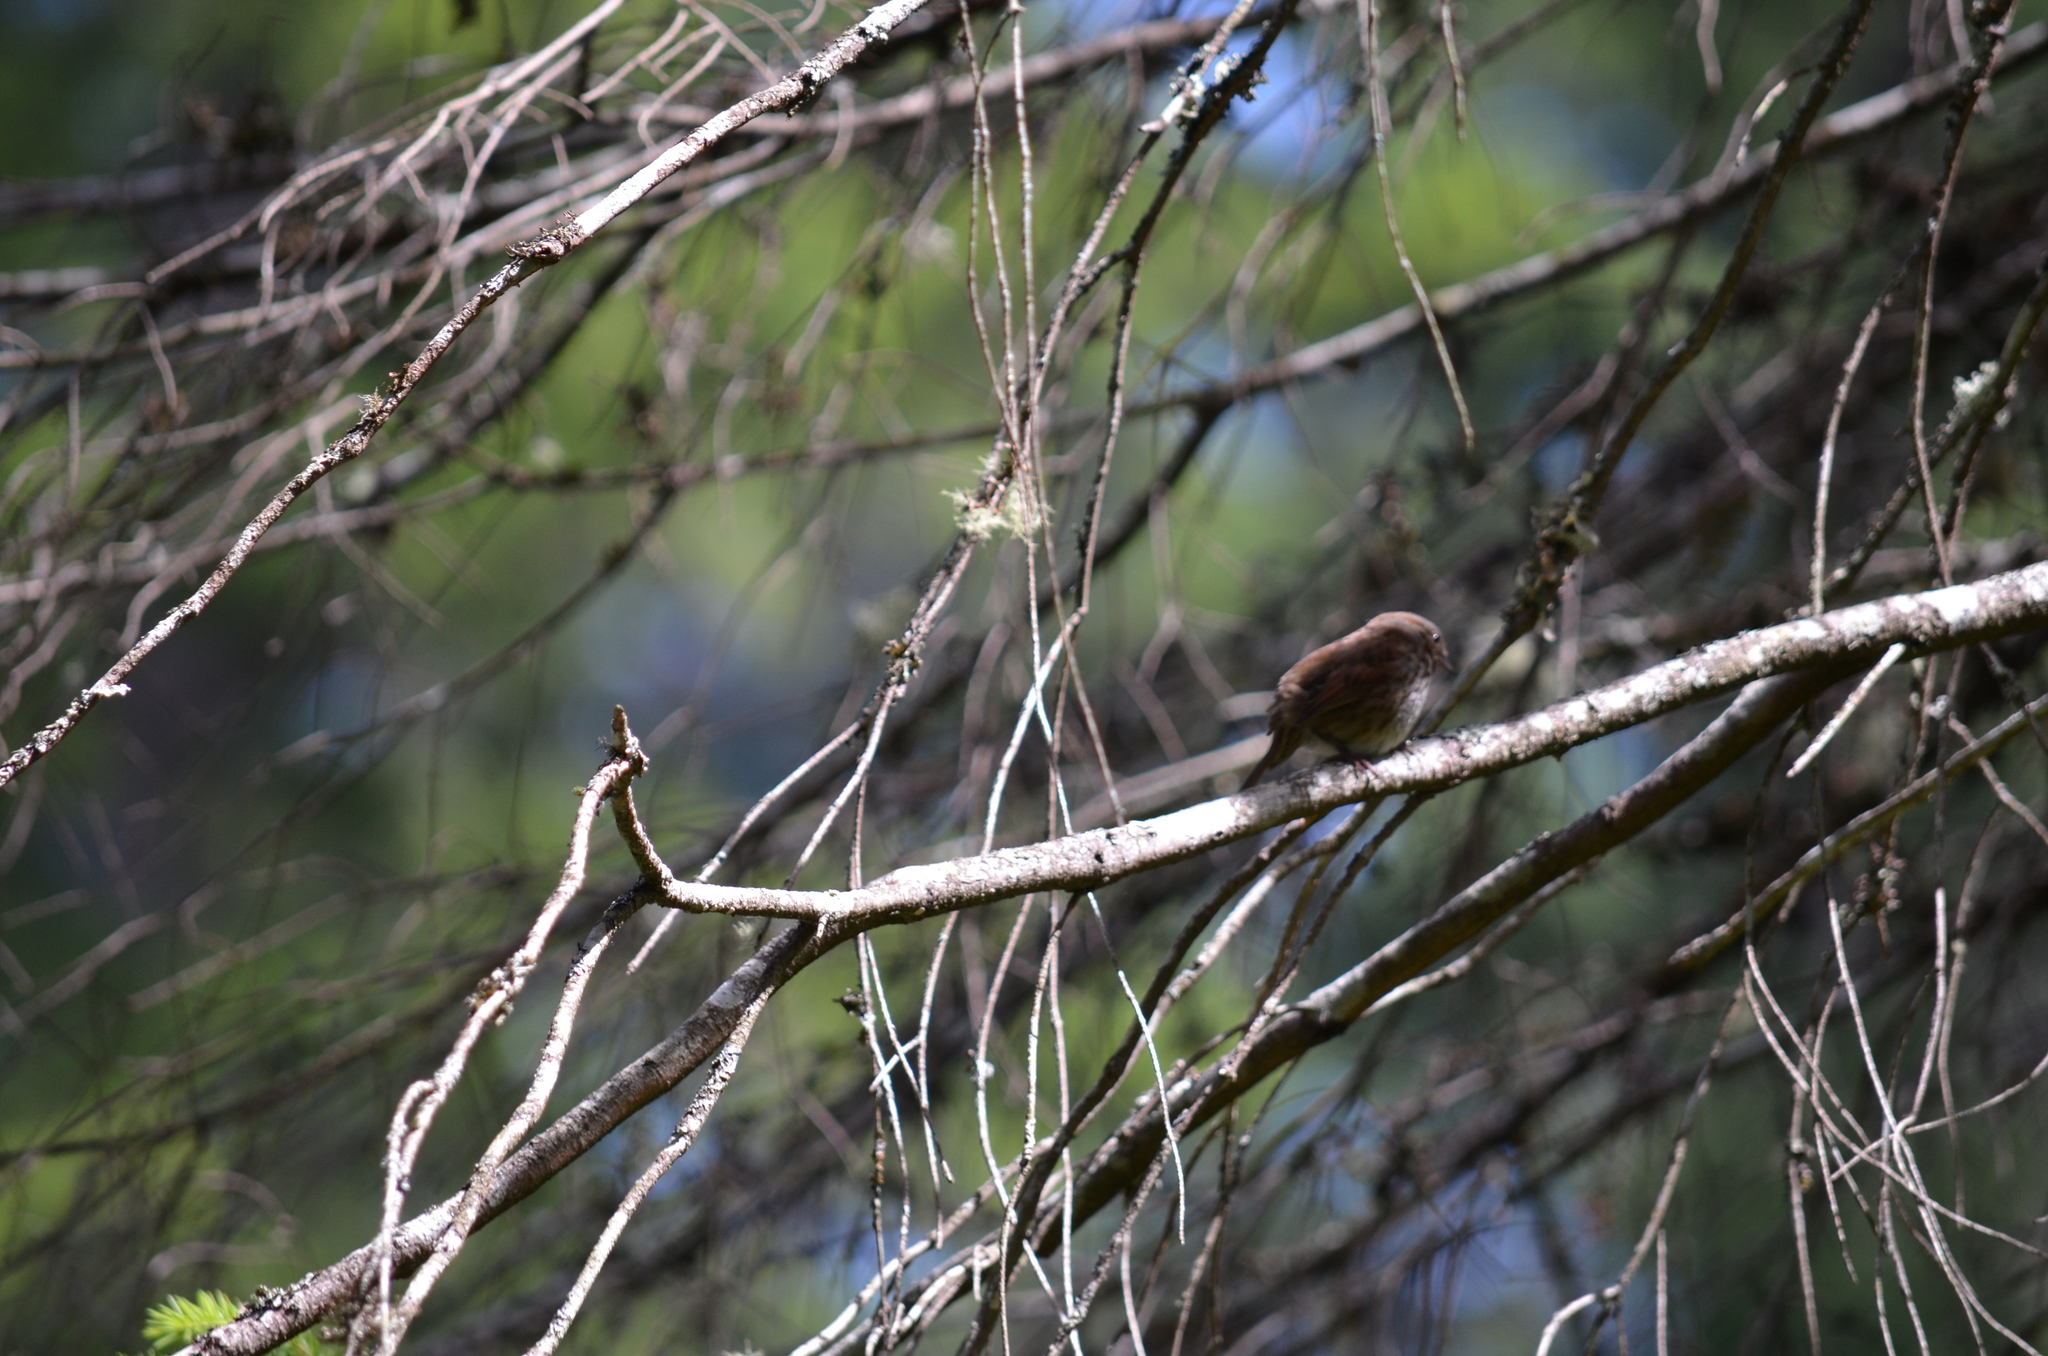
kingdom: Animalia
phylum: Chordata
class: Aves
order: Passeriformes
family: Passerellidae
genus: Melospiza
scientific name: Melospiza melodia
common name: Song sparrow
